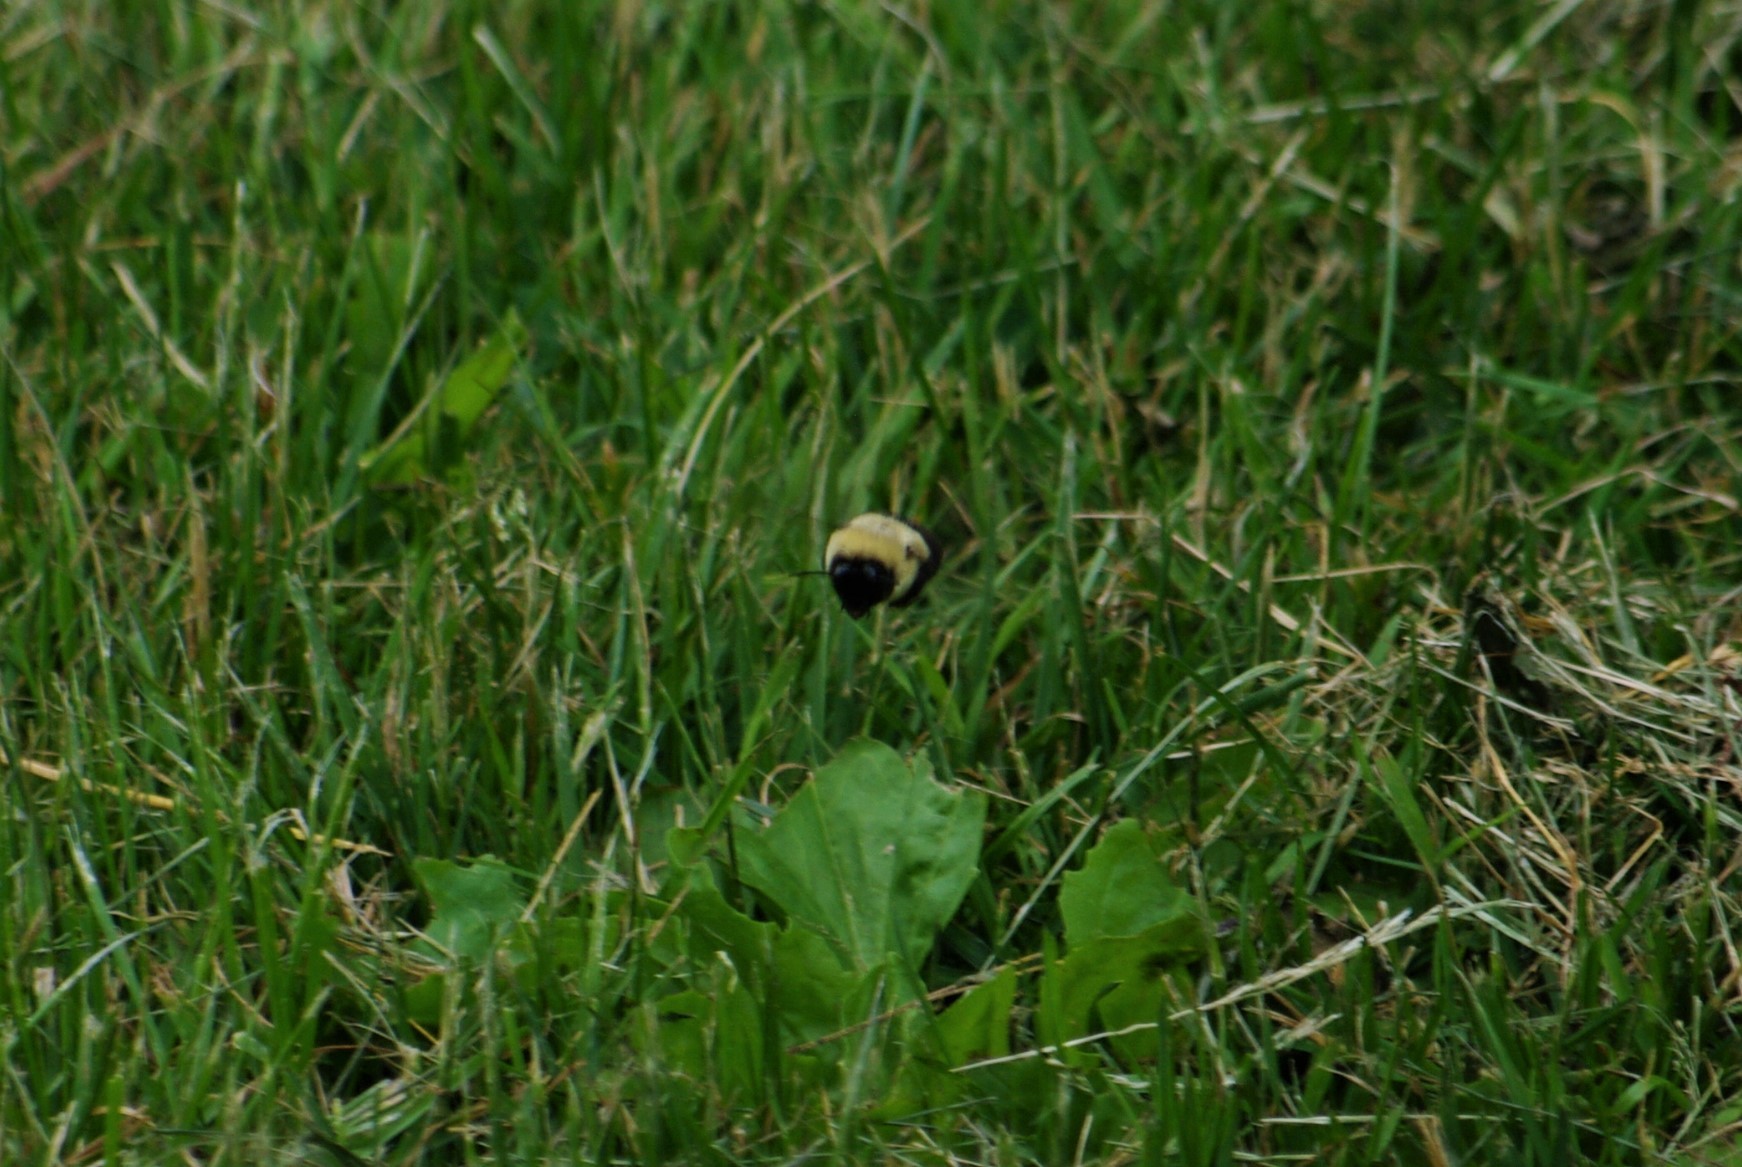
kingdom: Animalia
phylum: Arthropoda
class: Insecta
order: Hymenoptera
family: Apidae
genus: Bombus
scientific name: Bombus impatiens
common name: Common eastern bumble bee
